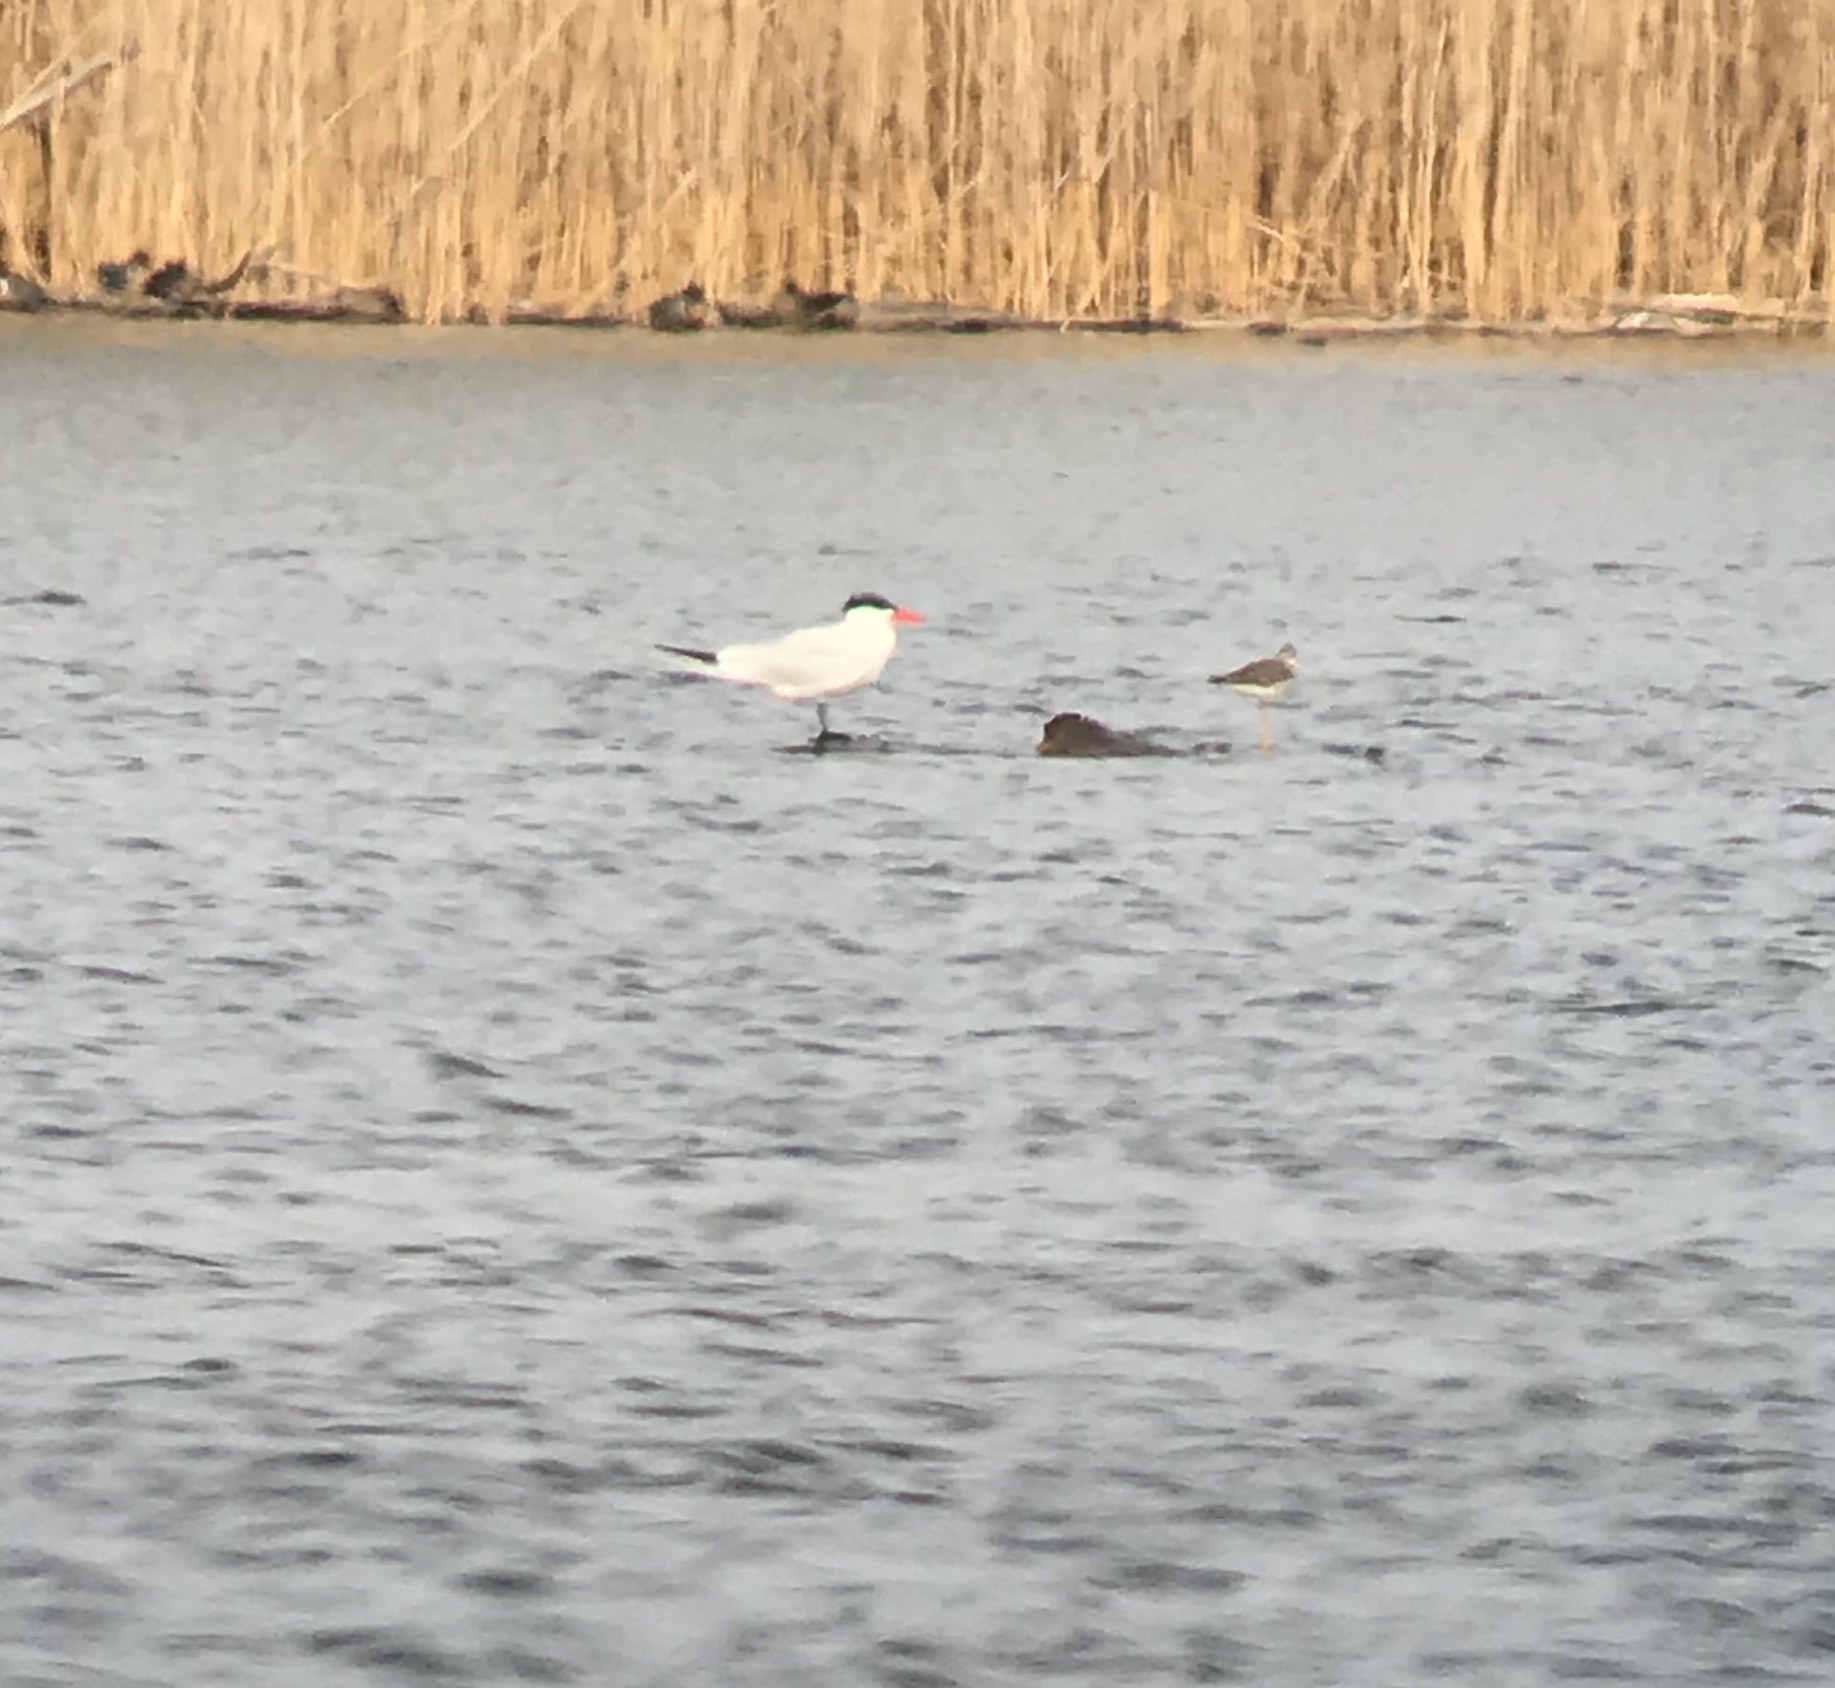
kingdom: Animalia
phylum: Chordata
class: Aves
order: Charadriiformes
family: Laridae
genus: Hydroprogne
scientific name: Hydroprogne caspia
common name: Caspian tern
